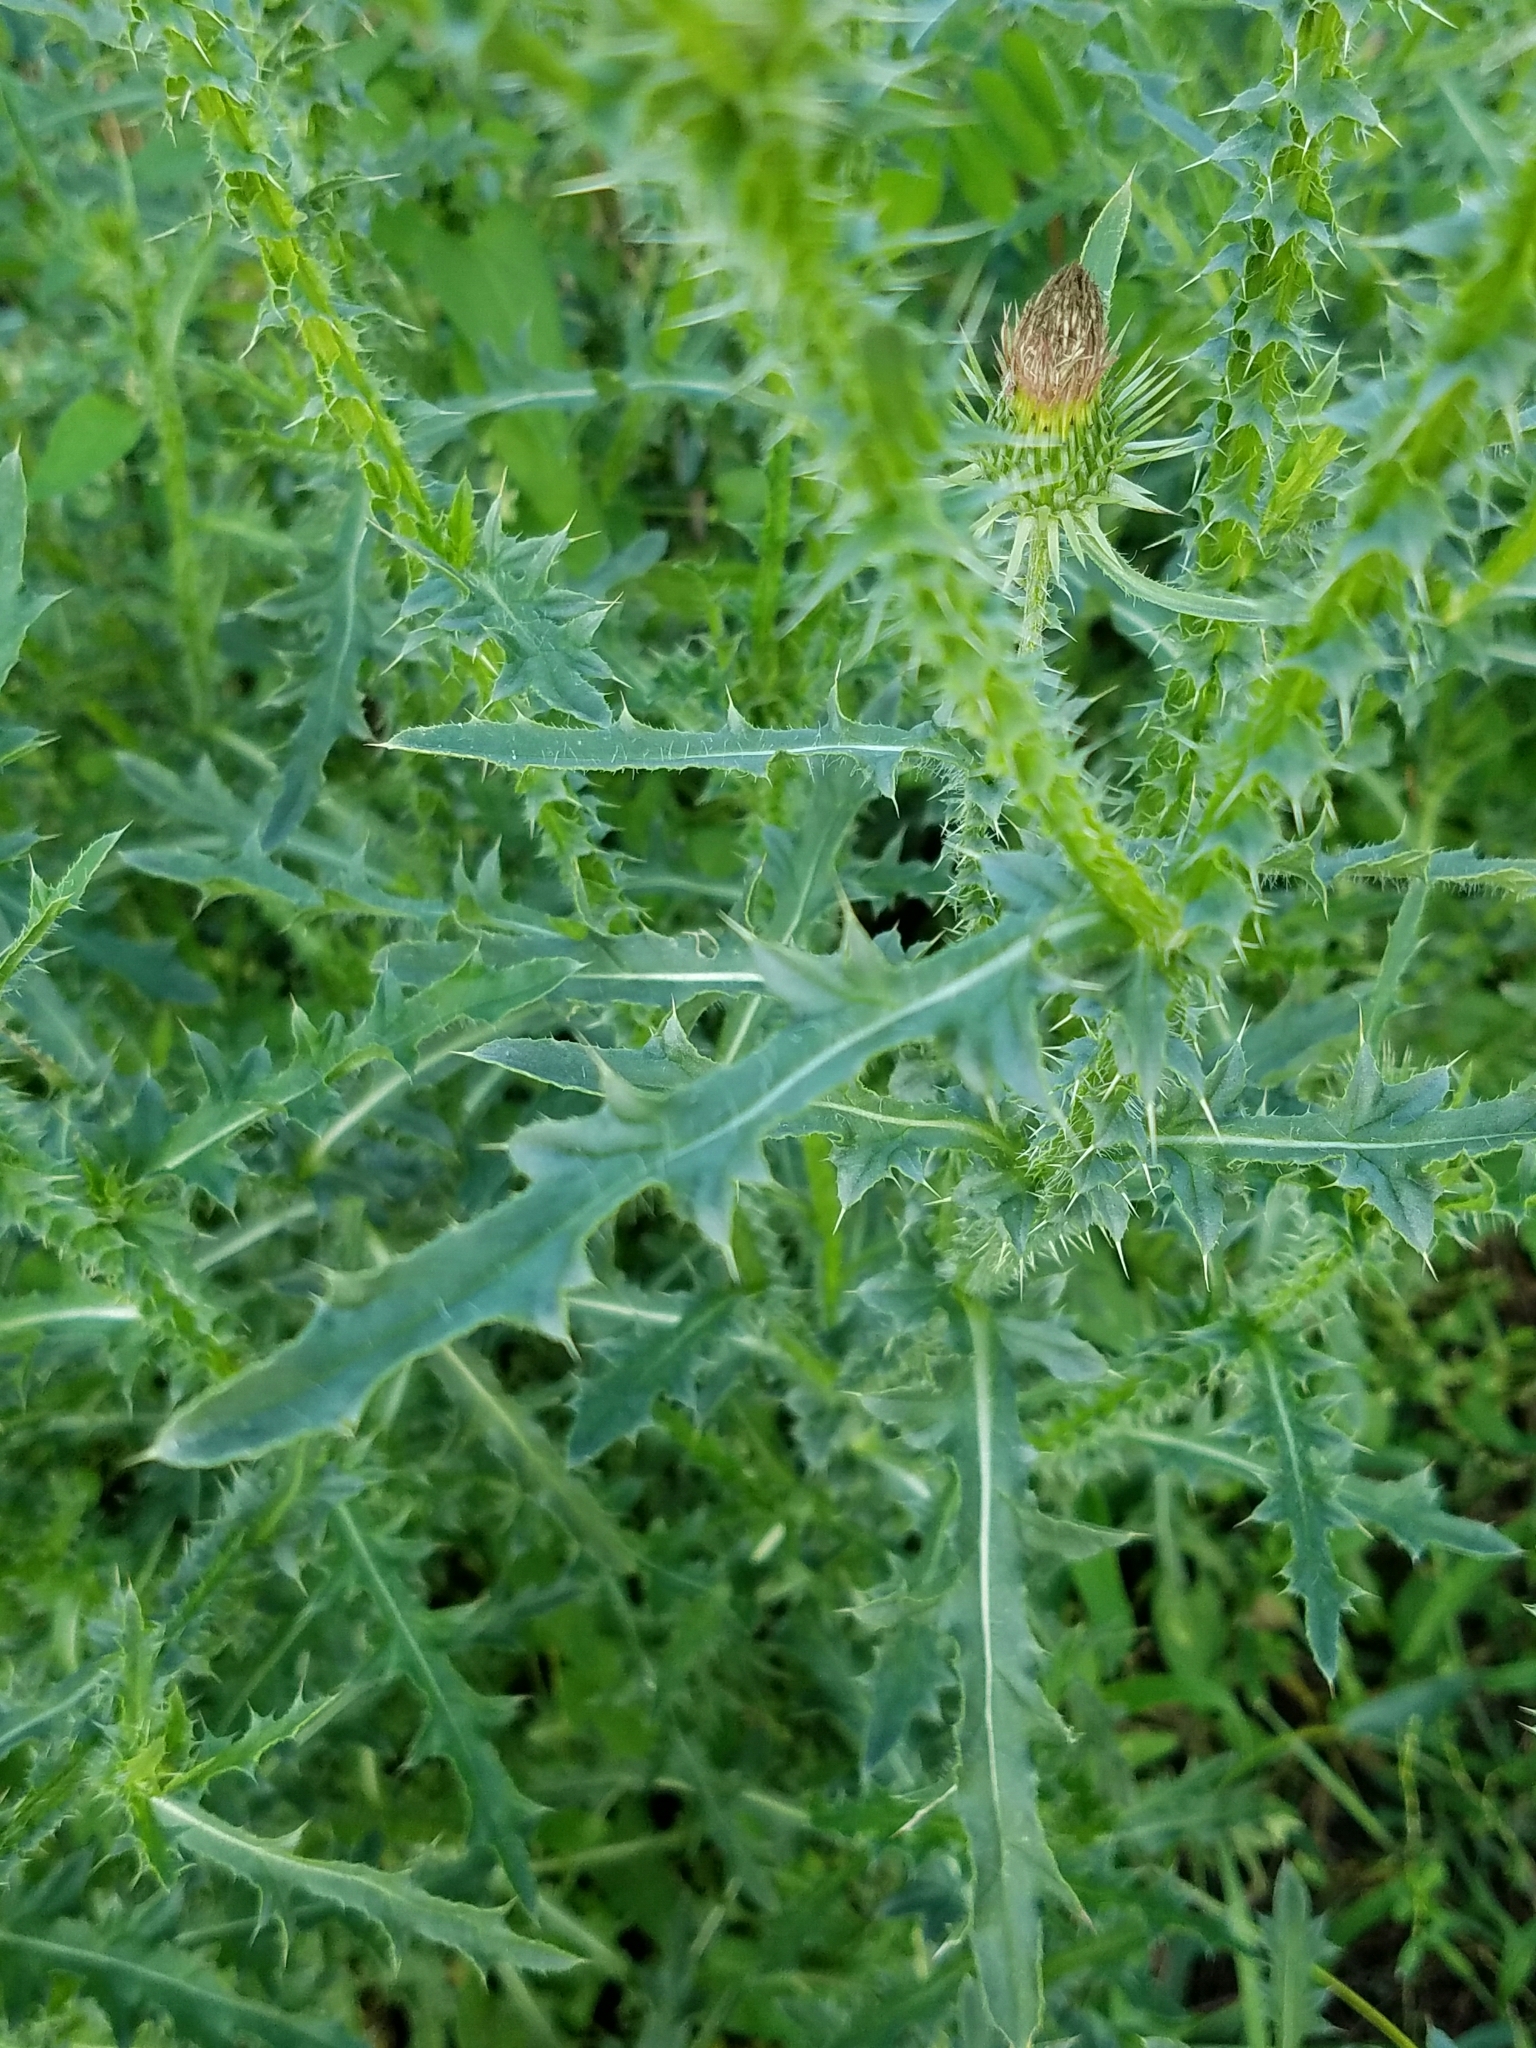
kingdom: Plantae
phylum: Tracheophyta
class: Magnoliopsida
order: Asterales
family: Asteraceae
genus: Carduus
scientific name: Carduus acanthoides
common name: Plumeless thistle
